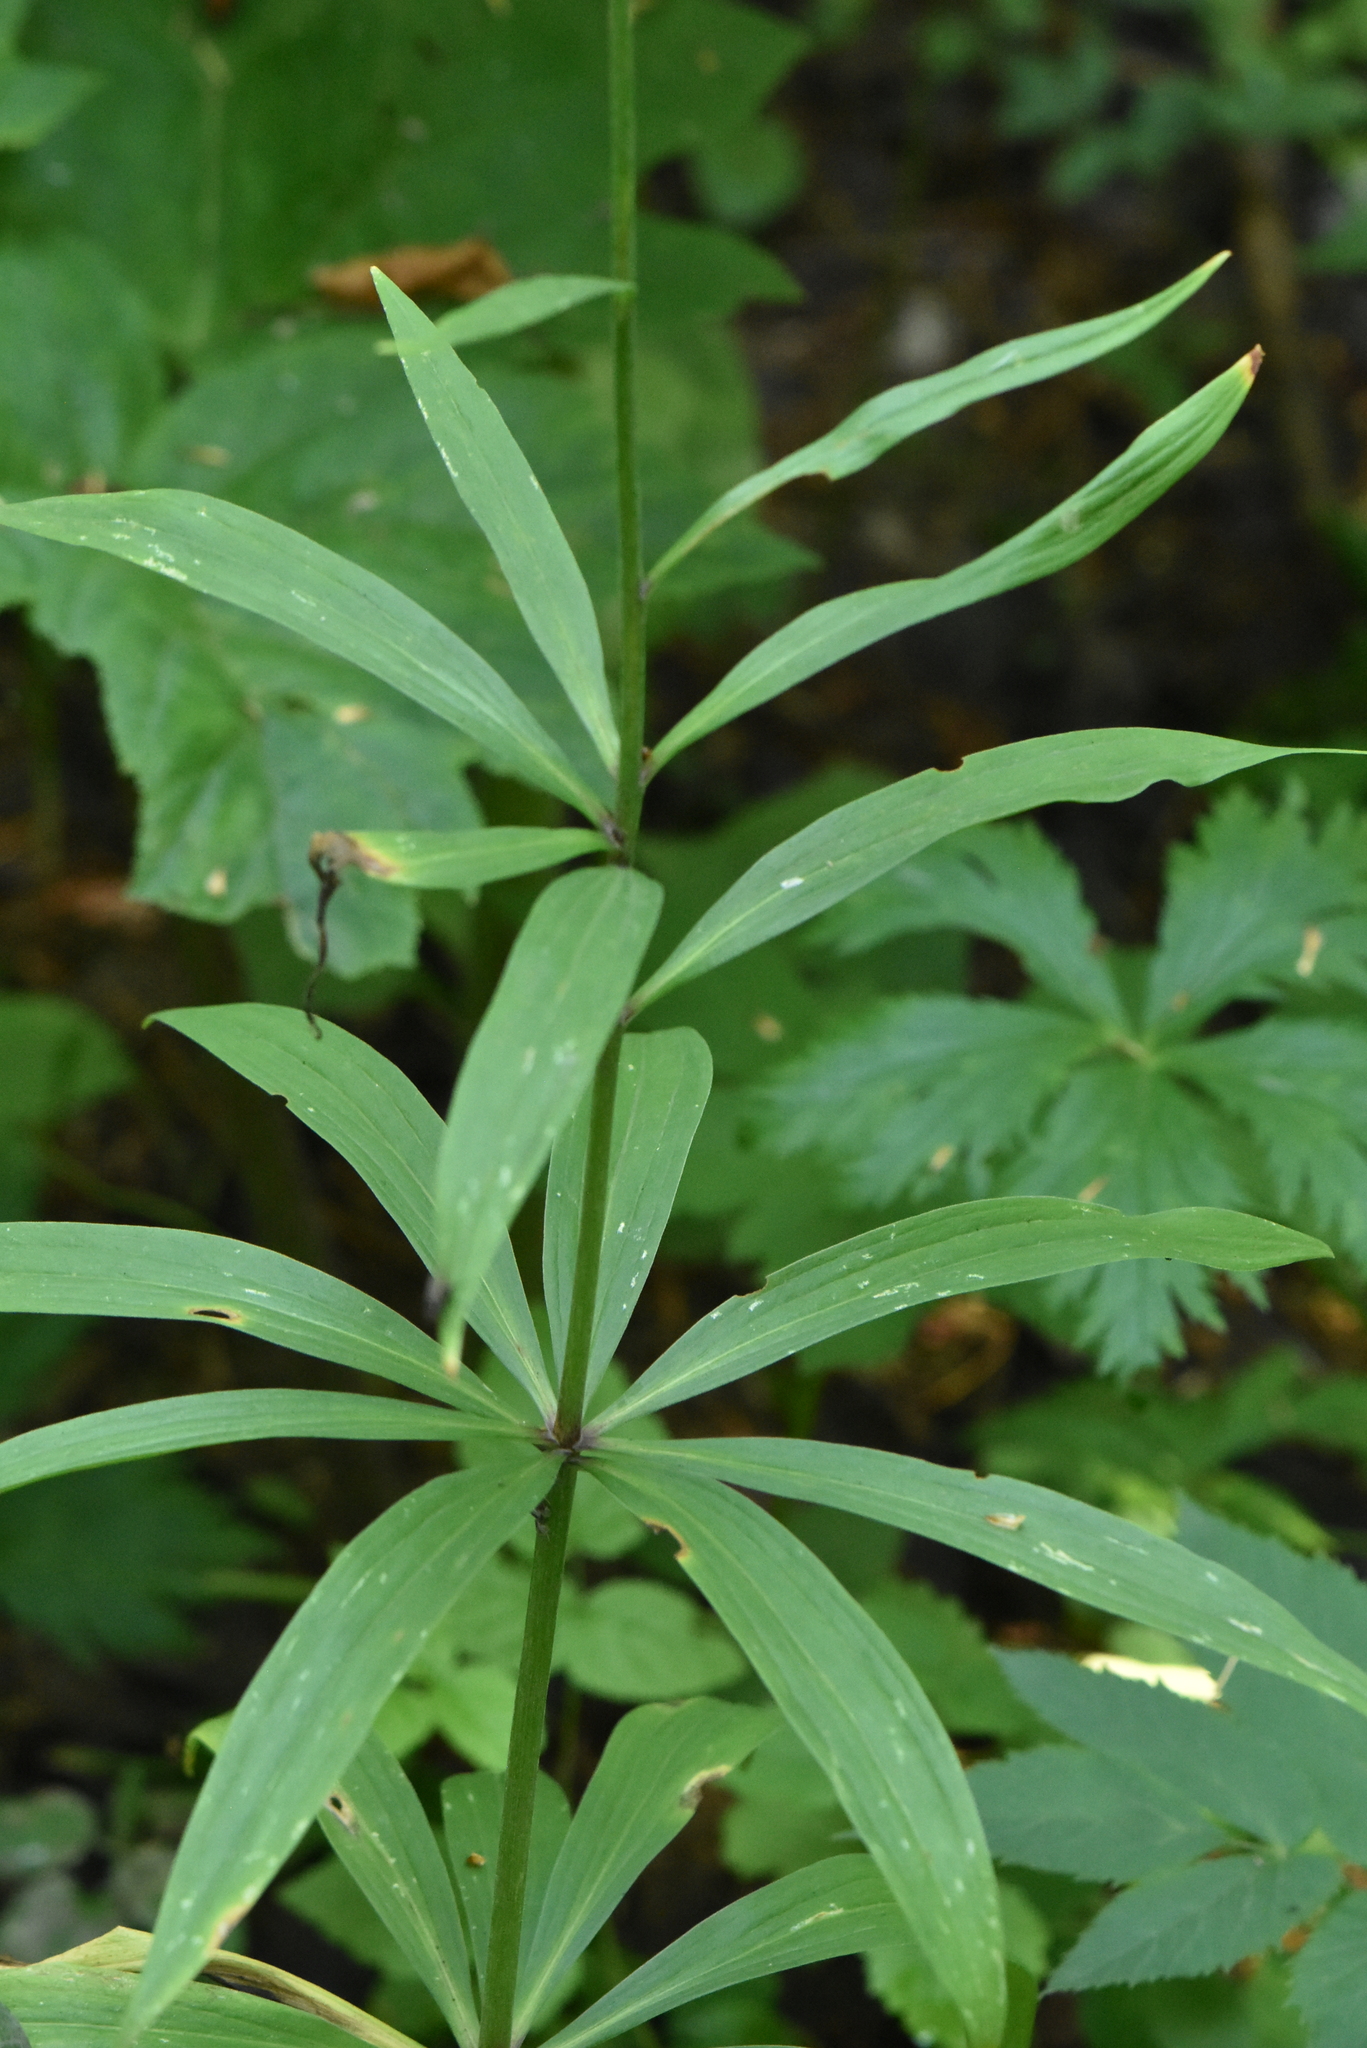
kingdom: Plantae
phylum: Tracheophyta
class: Liliopsida
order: Liliales
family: Liliaceae
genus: Lilium
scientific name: Lilium martagon
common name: Martagon lily
